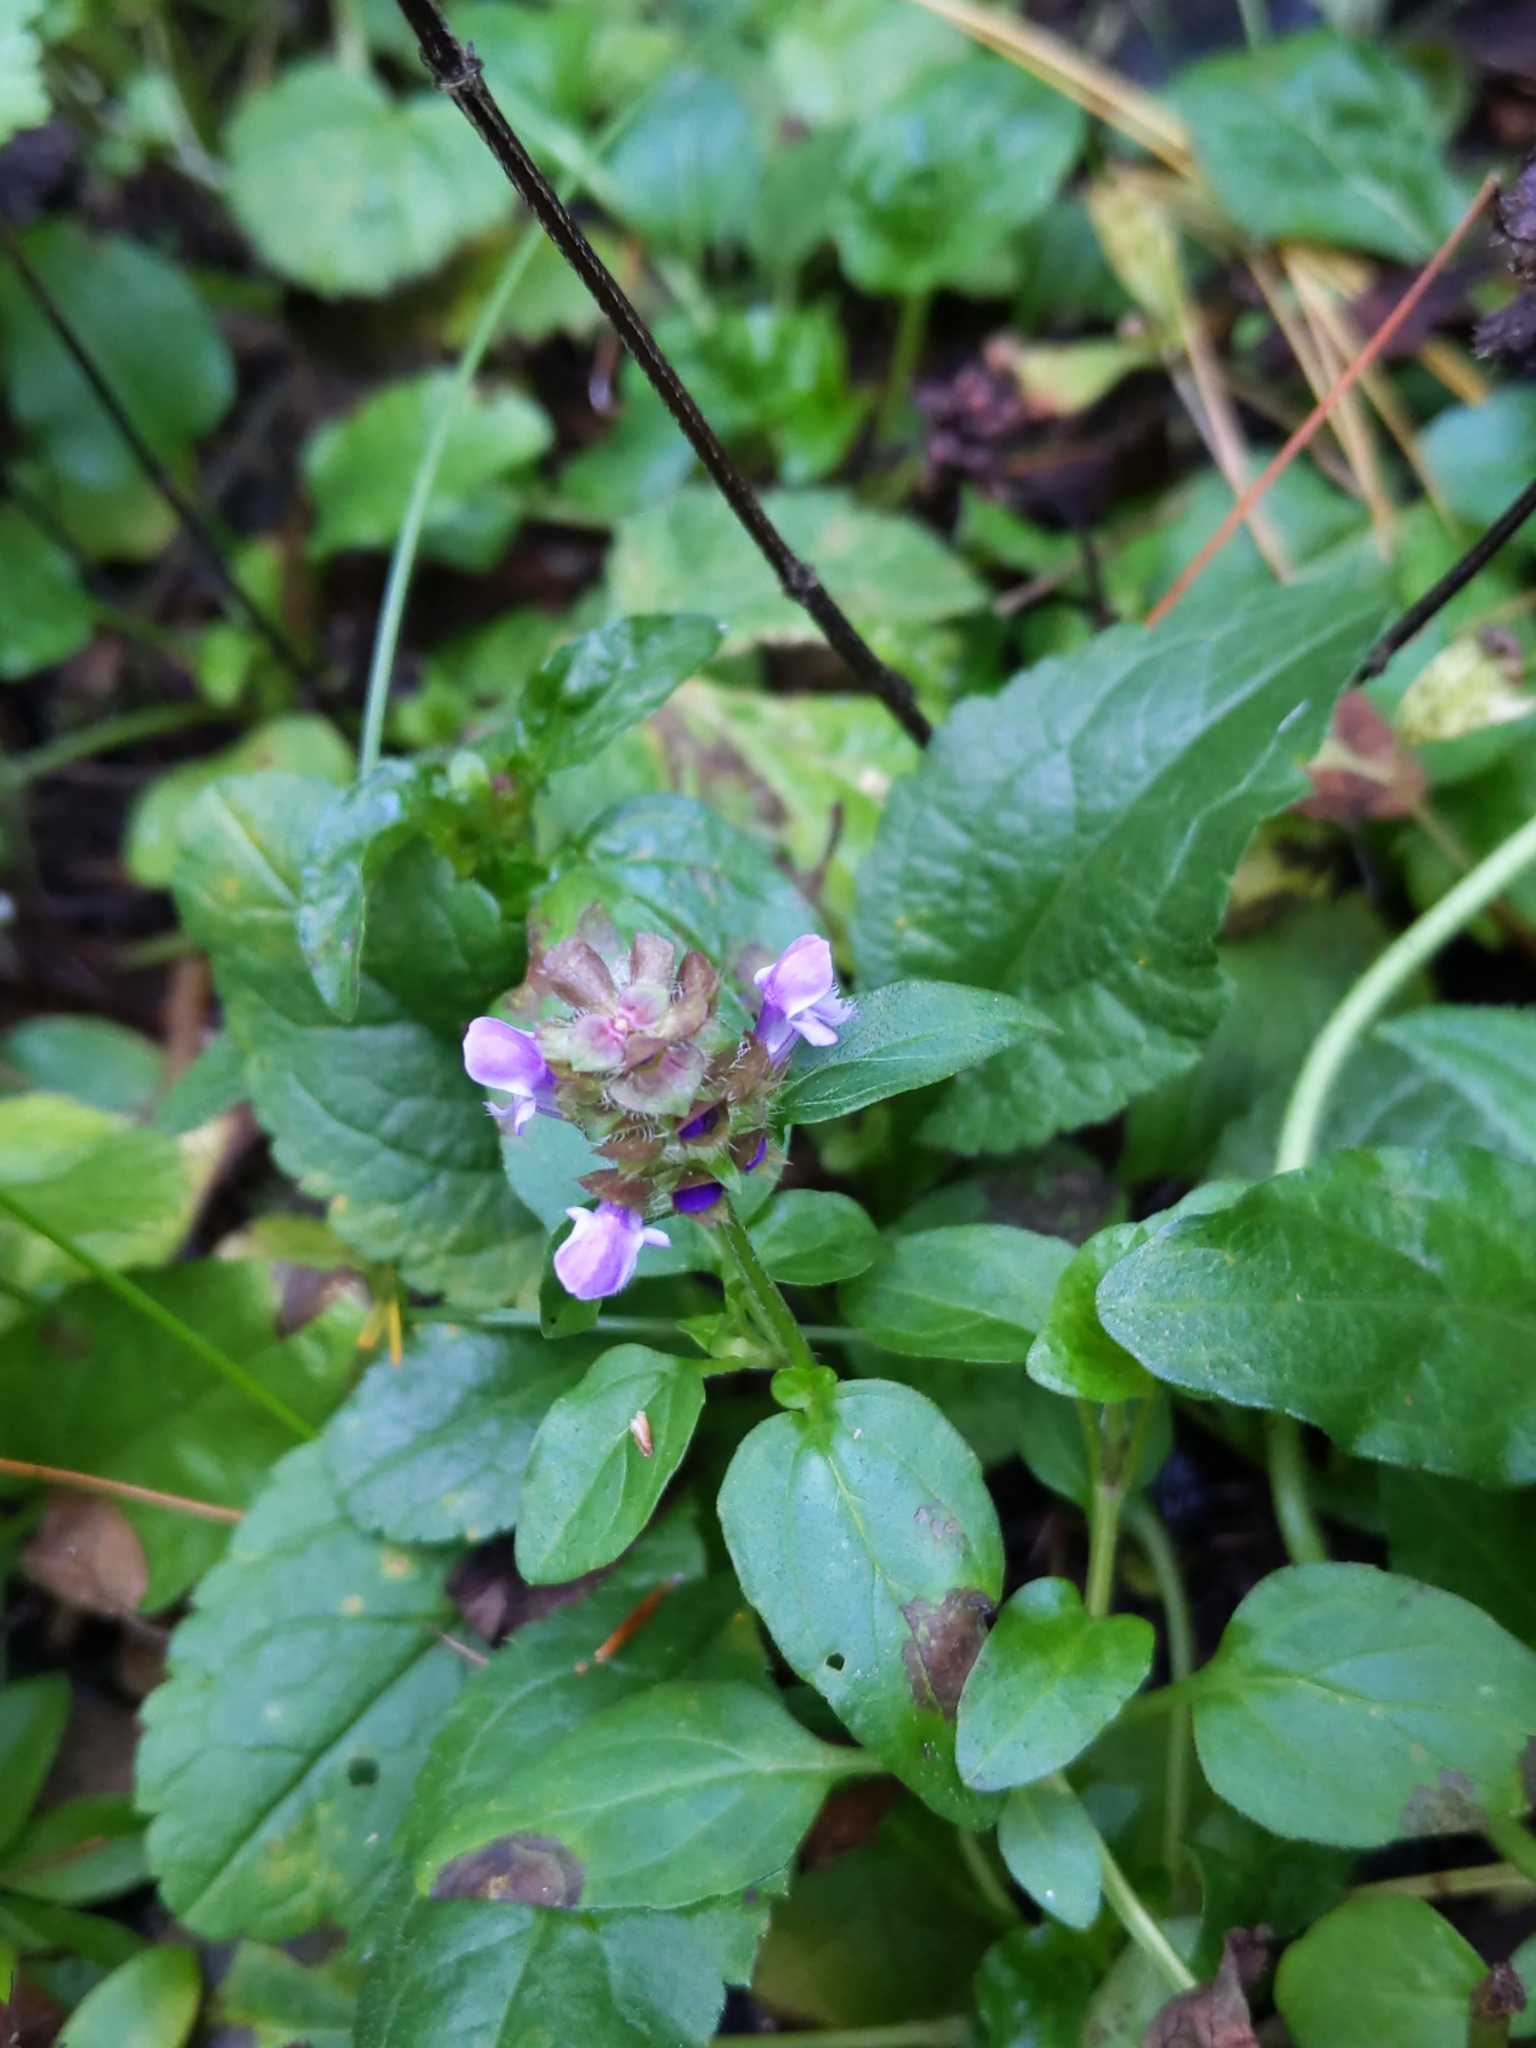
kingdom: Plantae
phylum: Tracheophyta
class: Magnoliopsida
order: Lamiales
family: Lamiaceae
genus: Prunella
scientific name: Prunella vulgaris
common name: Heal-all
